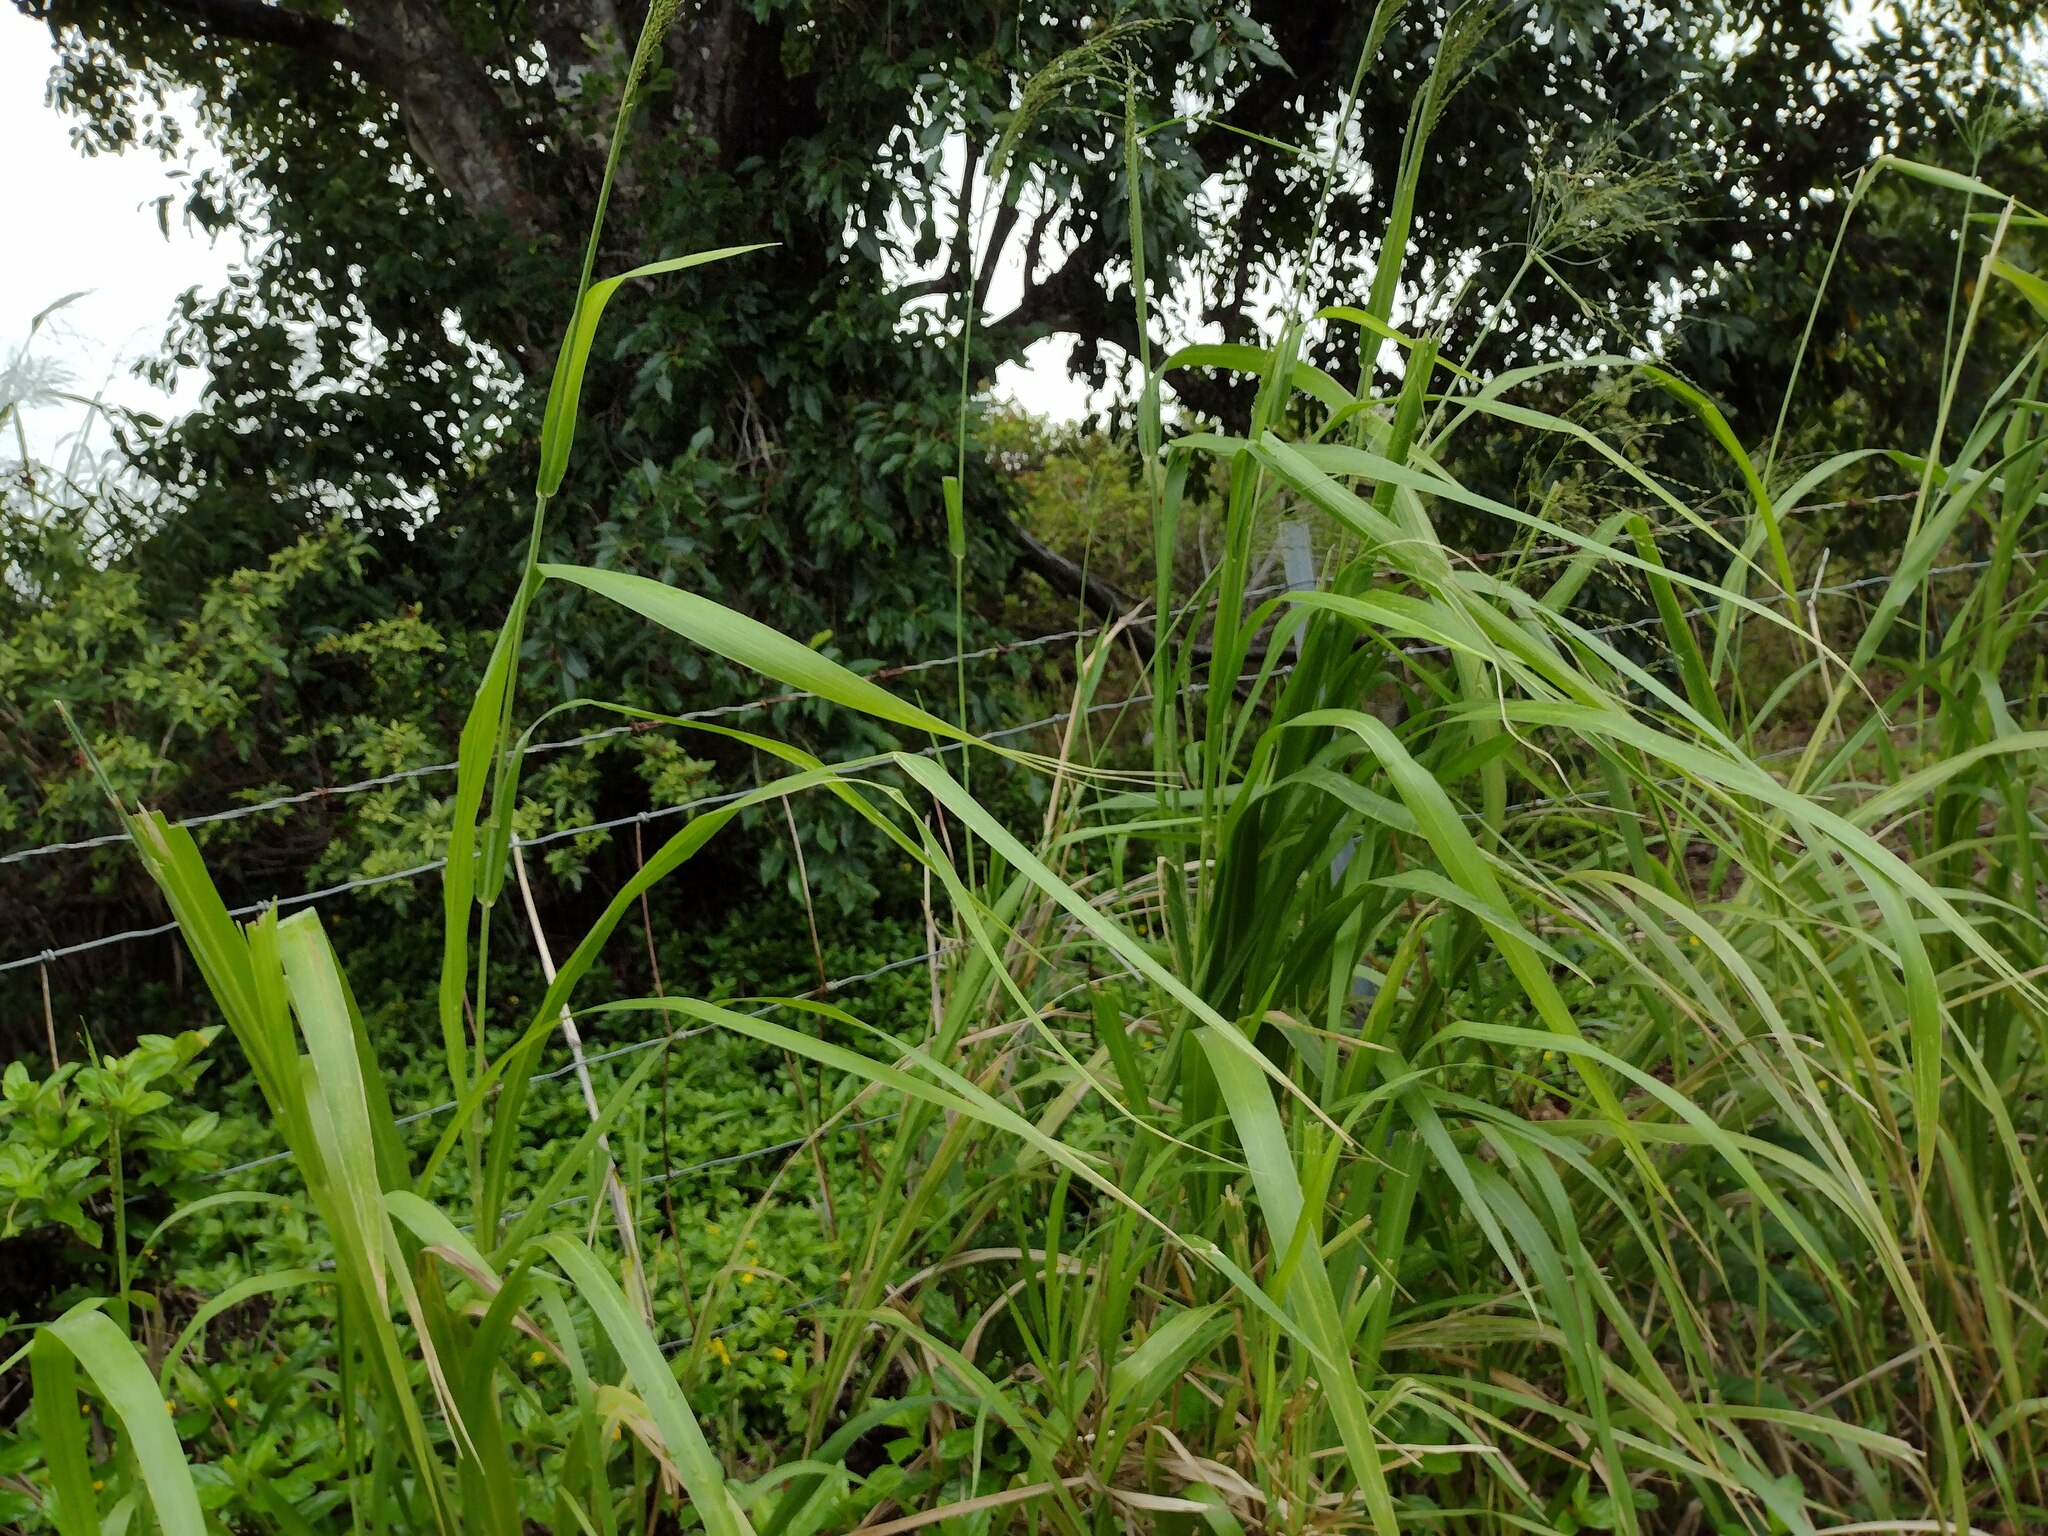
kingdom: Plantae
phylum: Tracheophyta
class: Liliopsida
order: Poales
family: Poaceae
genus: Megathyrsus
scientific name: Megathyrsus maximus
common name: Guineagrass
